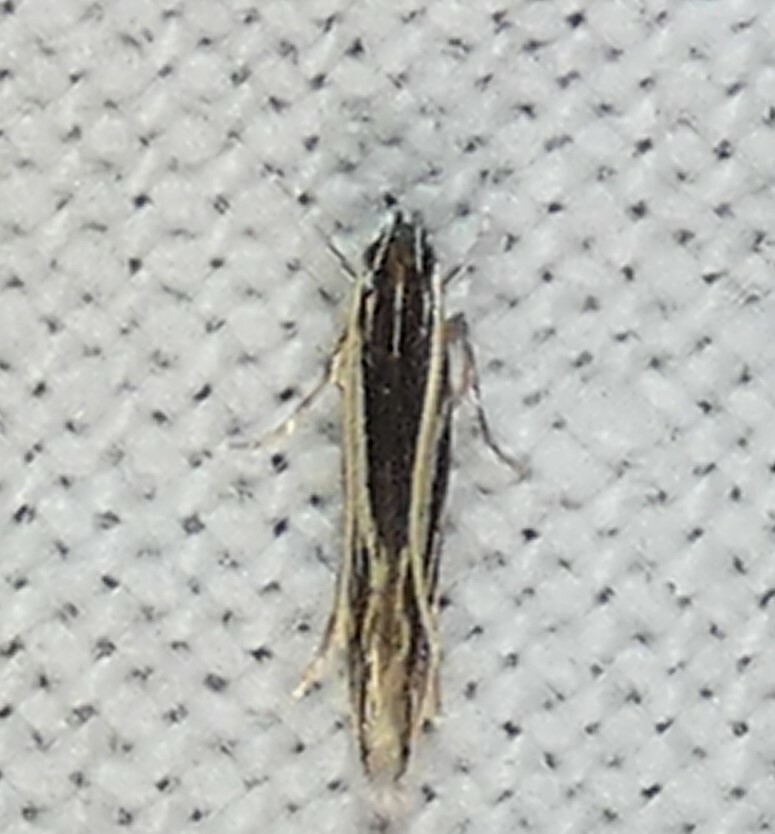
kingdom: Animalia
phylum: Arthropoda
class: Insecta
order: Lepidoptera
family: Cosmopterigidae
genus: Eralea
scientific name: Eralea albalineella
